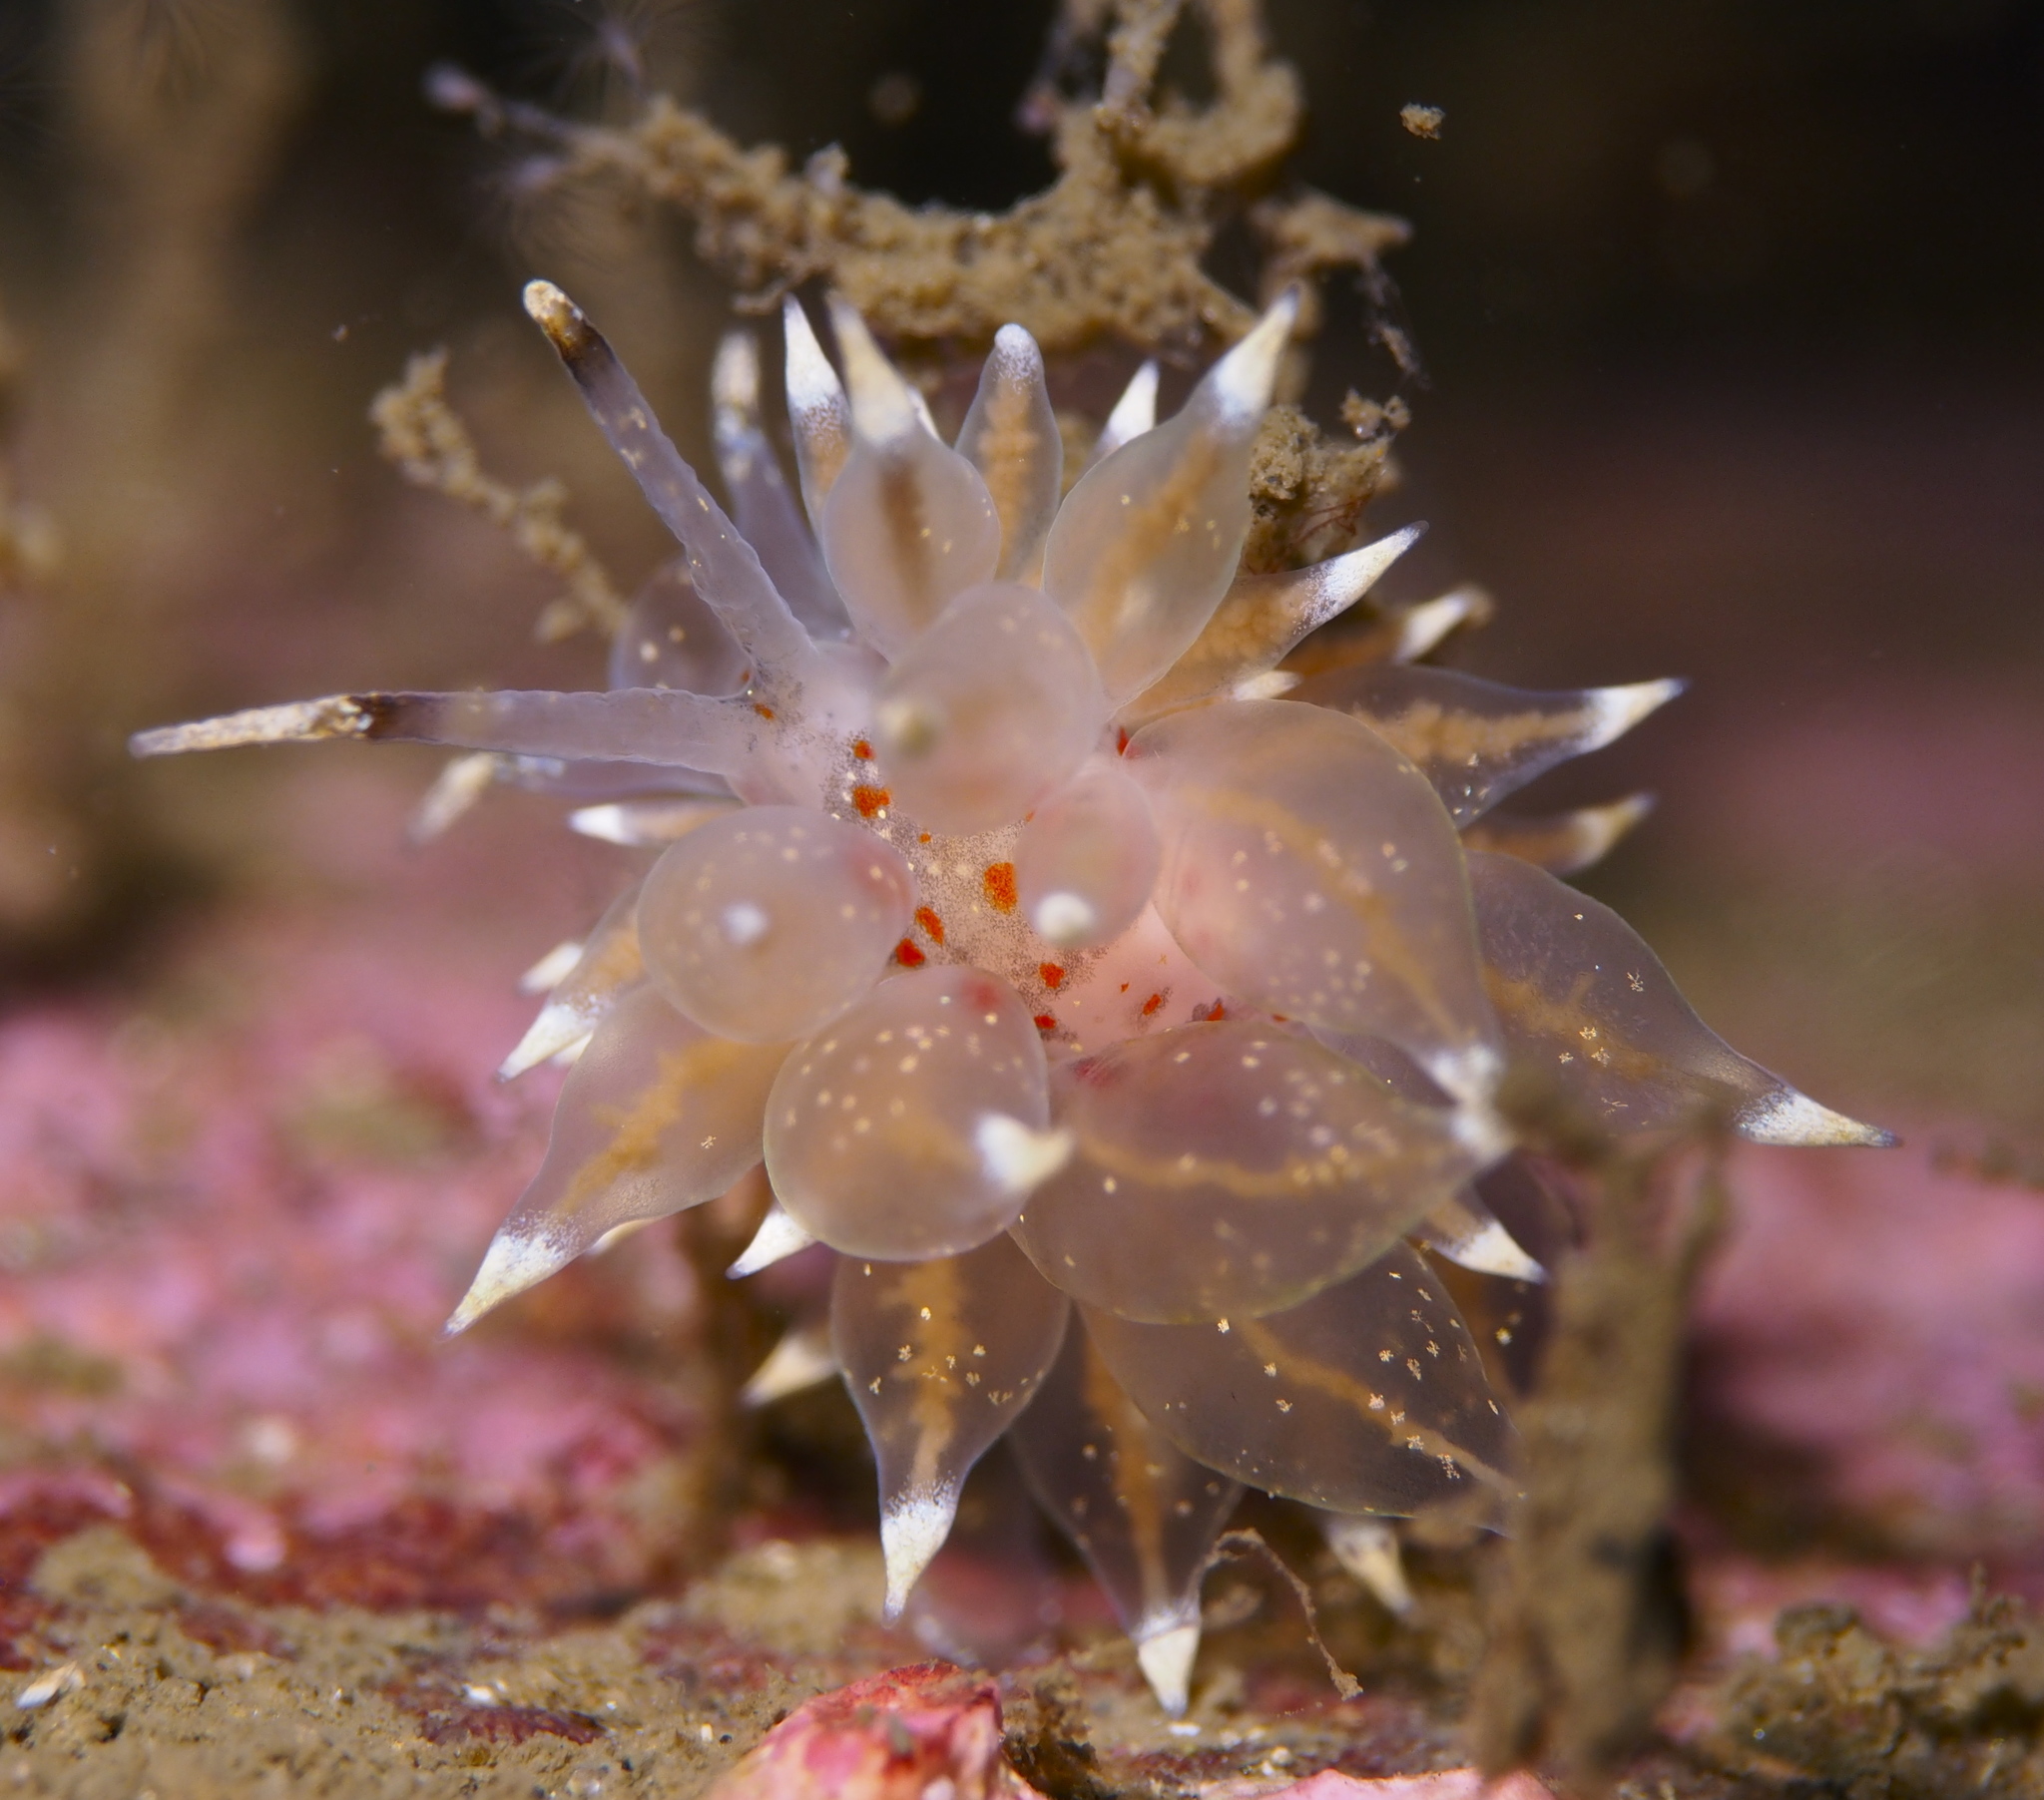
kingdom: Animalia
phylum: Mollusca
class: Gastropoda
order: Nudibranchia
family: Eubranchidae
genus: Amphorina
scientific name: Amphorina linensis
